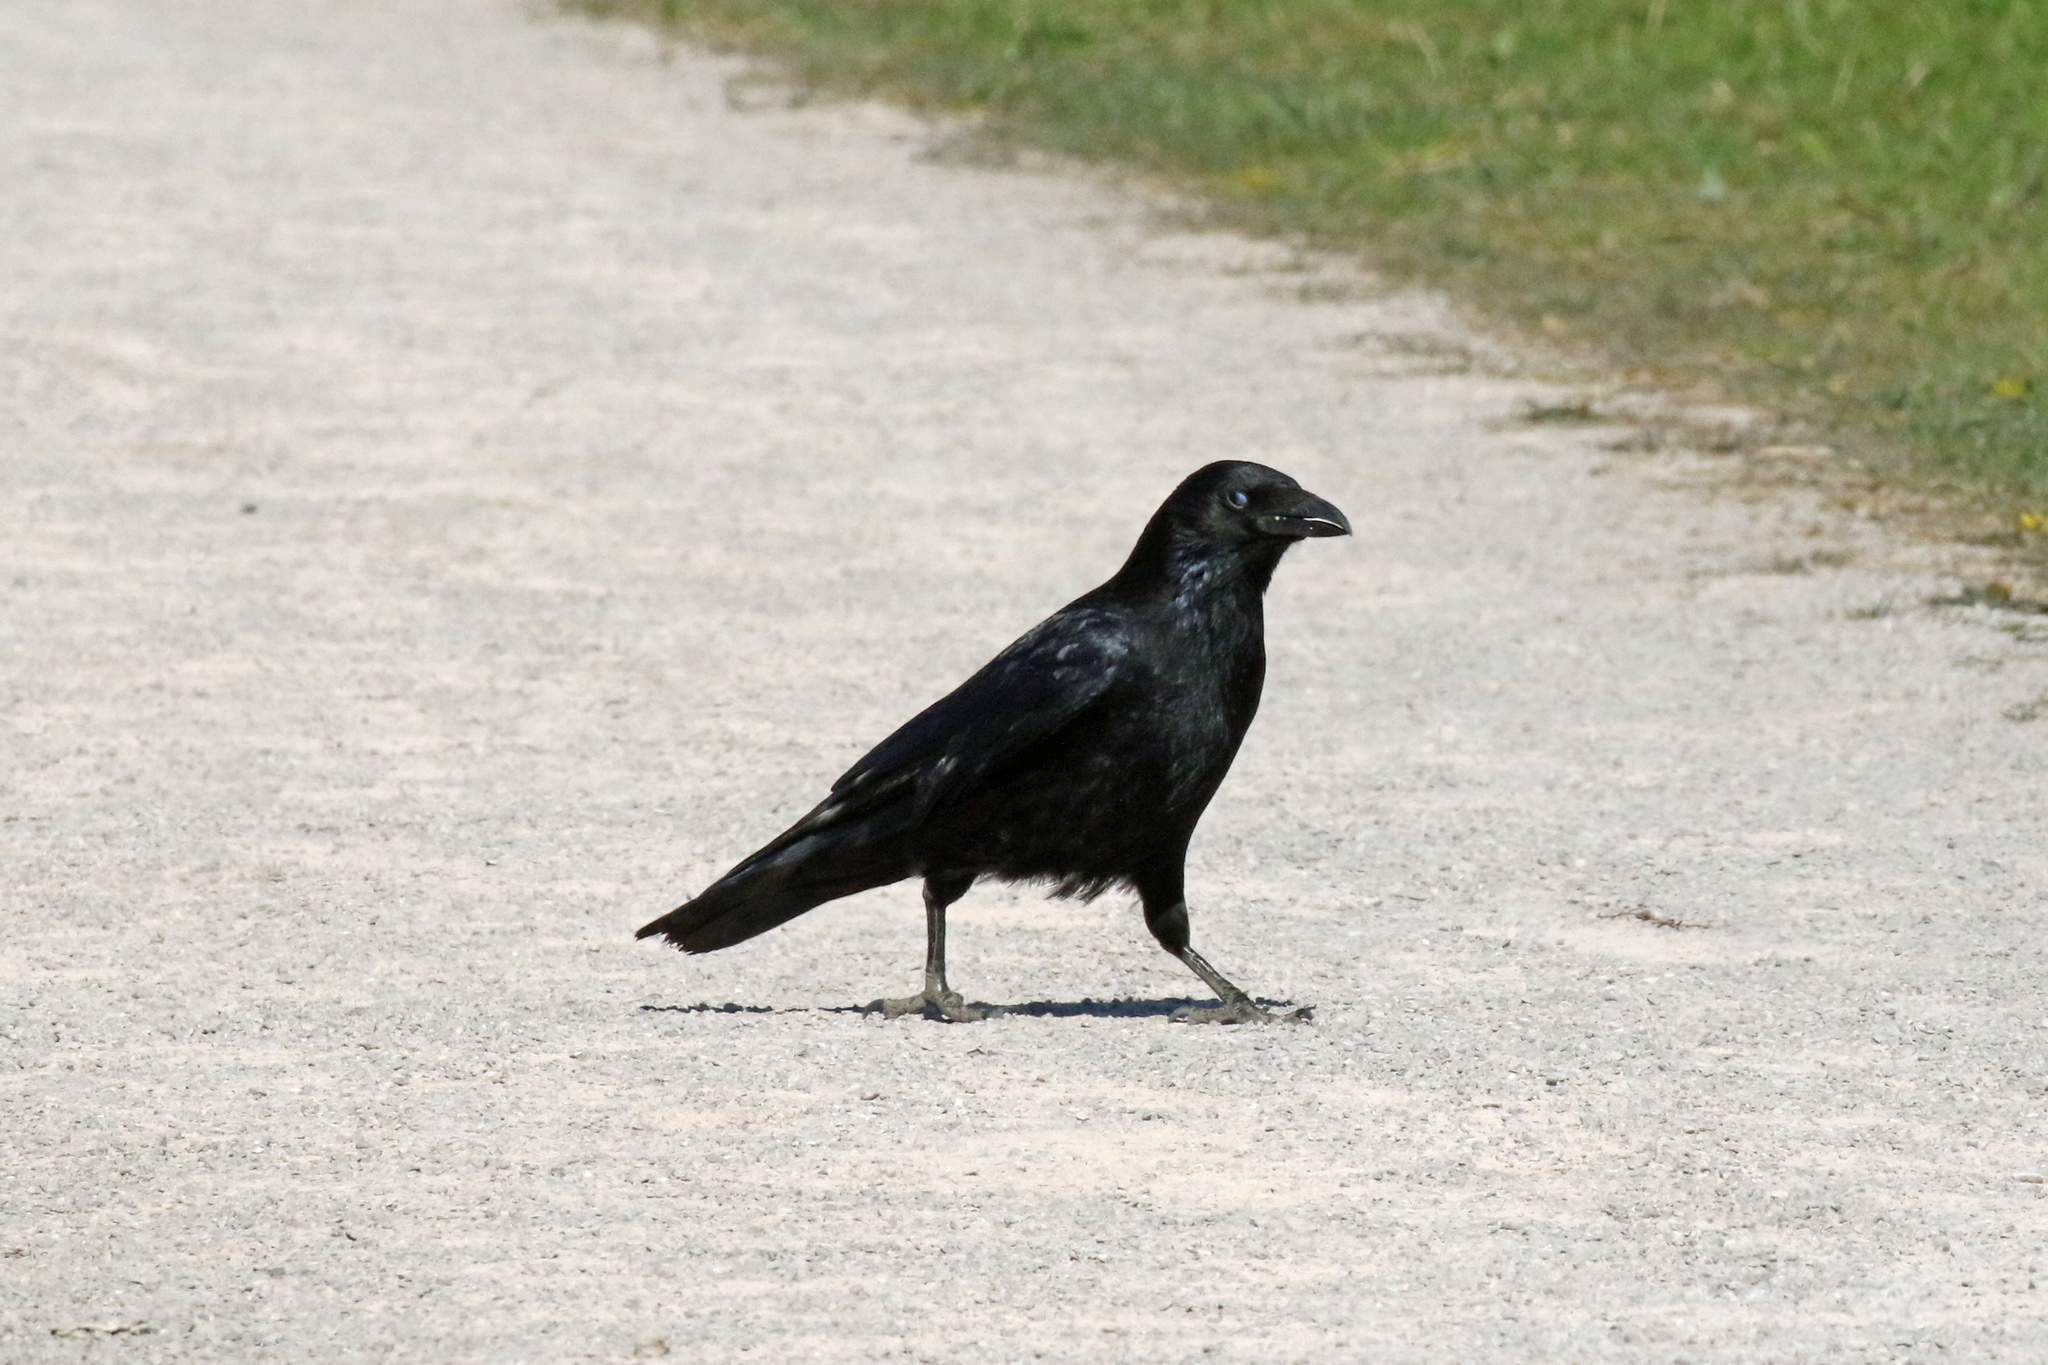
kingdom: Animalia
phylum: Chordata
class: Aves
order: Passeriformes
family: Corvidae
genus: Corvus
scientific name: Corvus corone
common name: Carrion crow
